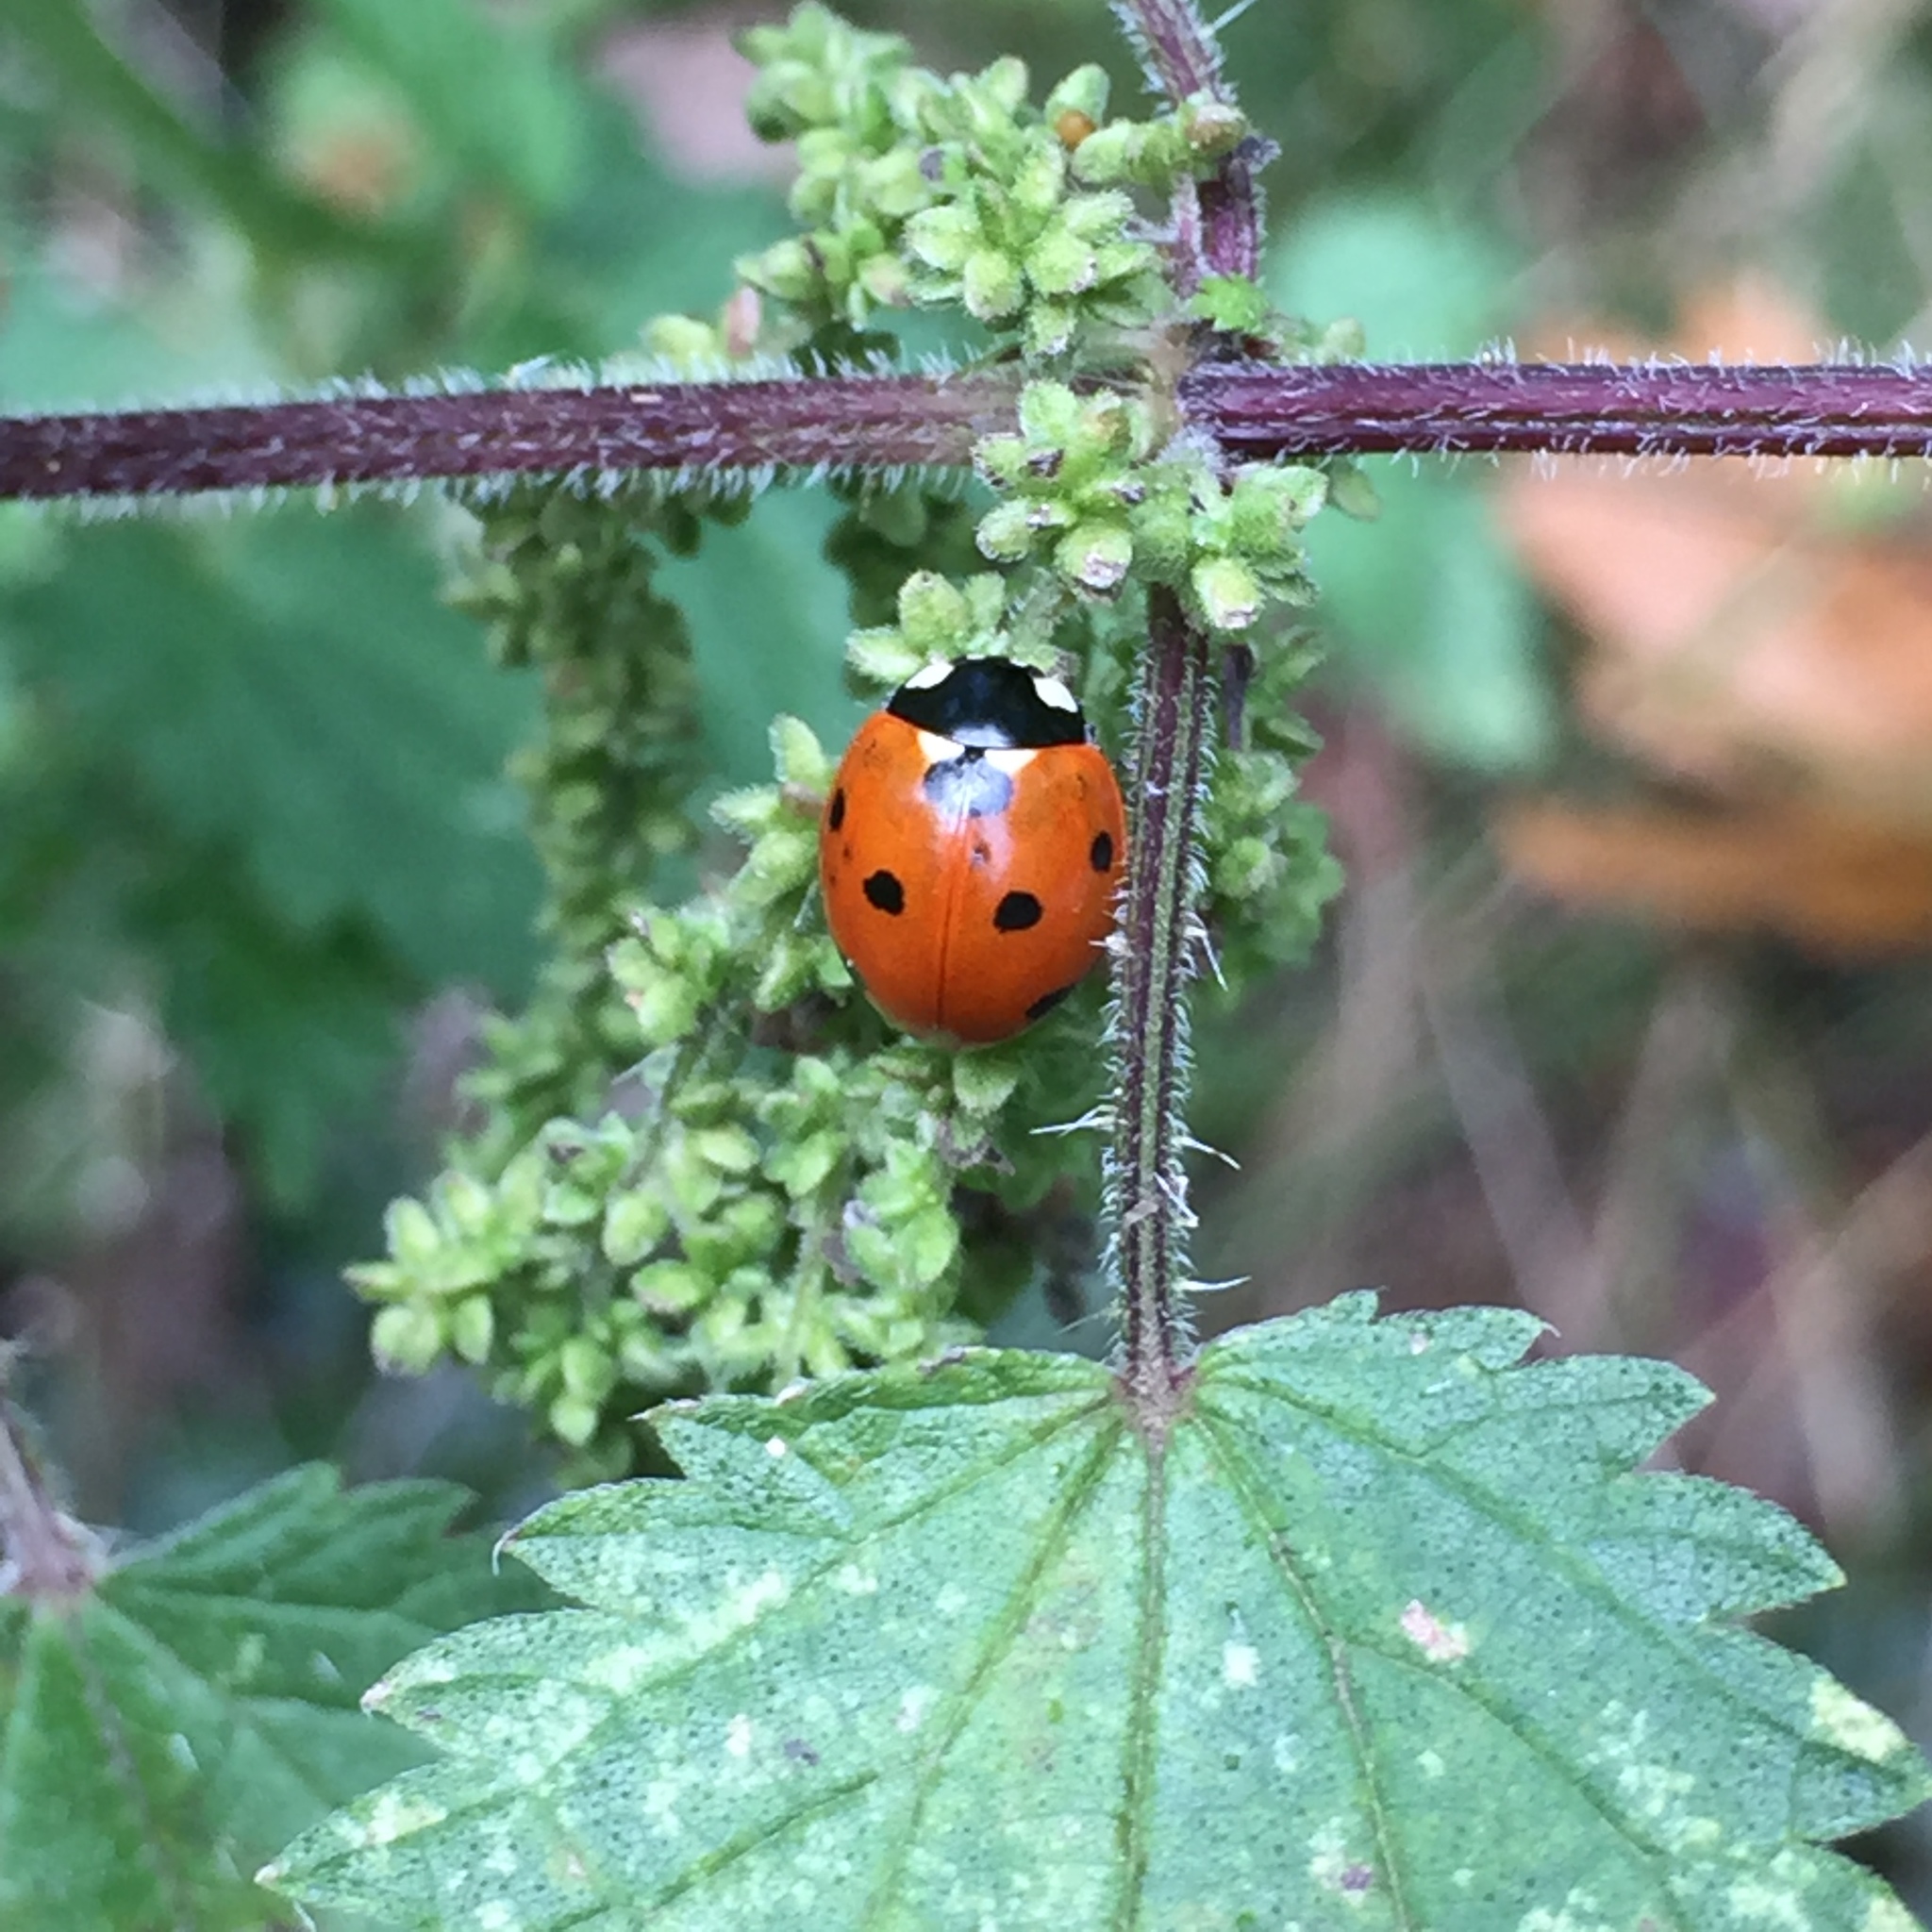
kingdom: Animalia
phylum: Arthropoda
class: Insecta
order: Coleoptera
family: Coccinellidae
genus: Coccinella
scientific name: Coccinella septempunctata
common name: Sevenspotted lady beetle
